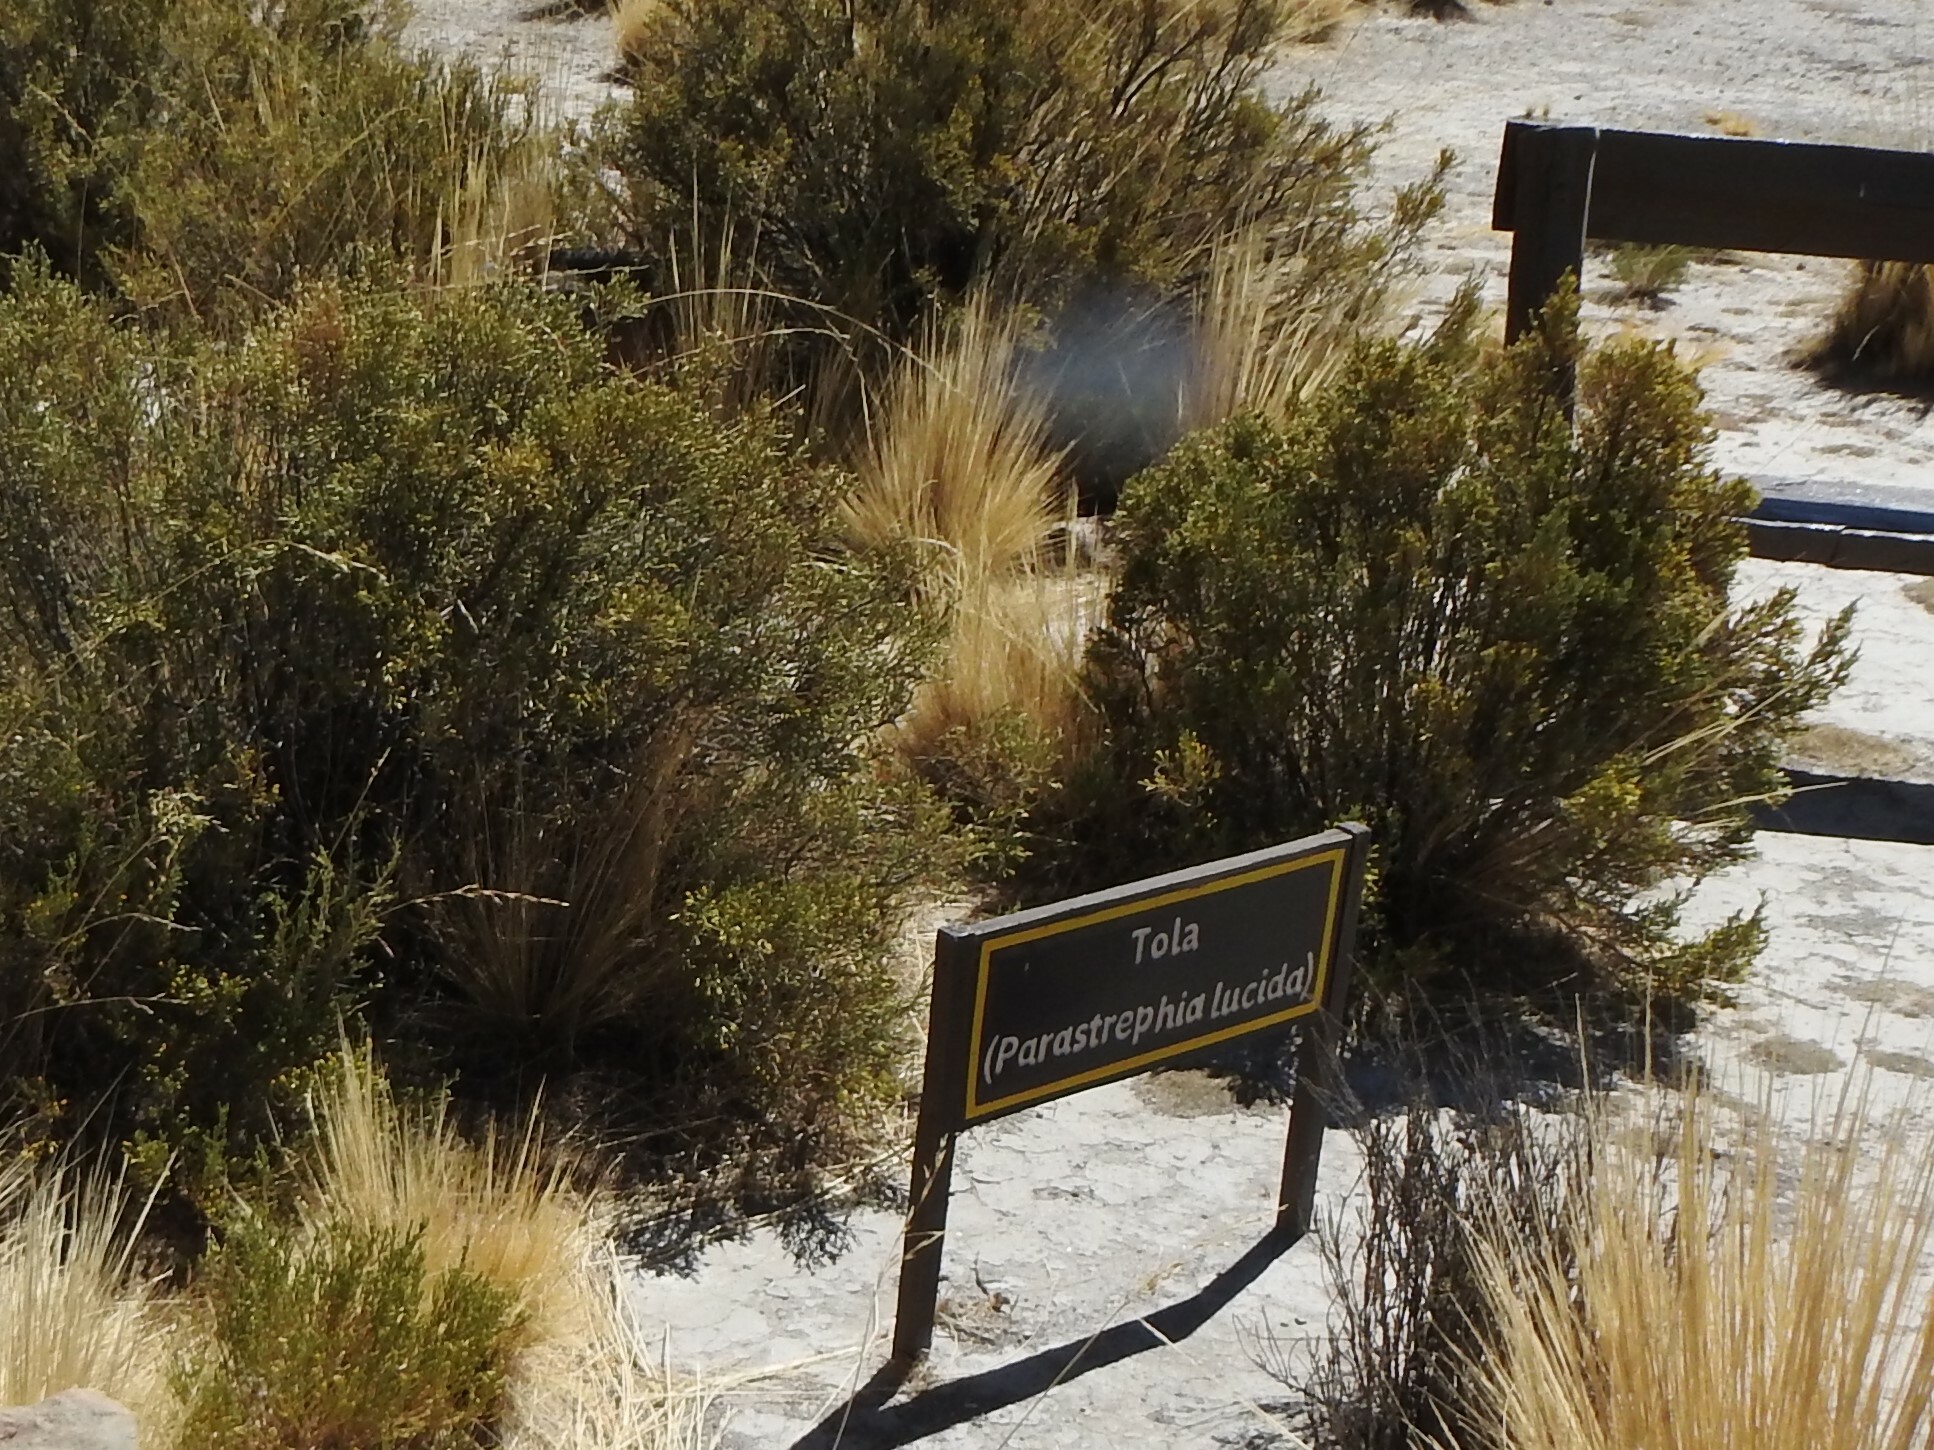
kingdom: Plantae
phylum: Tracheophyta
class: Magnoliopsida
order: Asterales
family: Asteraceae
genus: Parastrephia
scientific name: Parastrephia lucida
